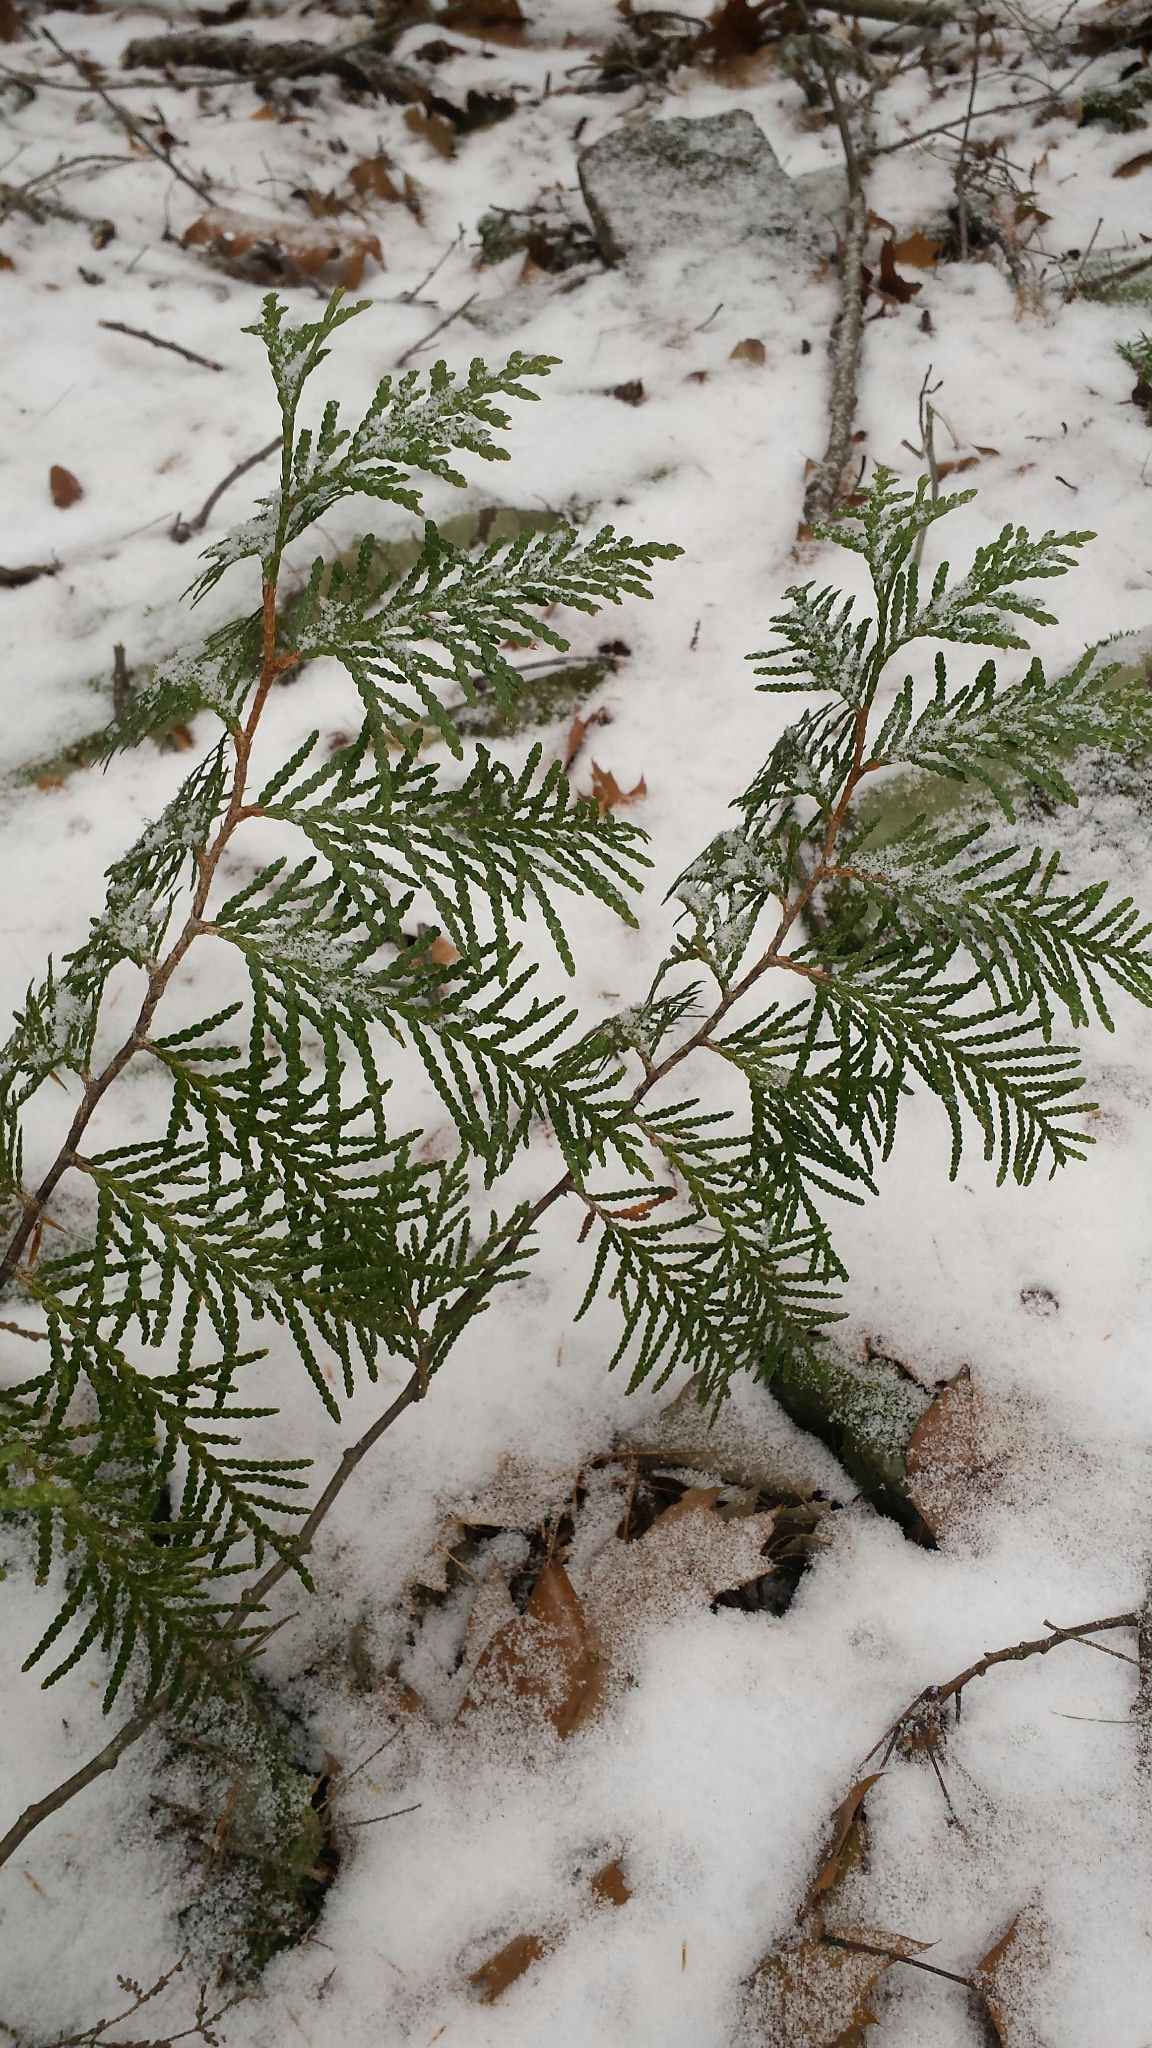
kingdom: Plantae
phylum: Tracheophyta
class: Pinopsida
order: Pinales
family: Cupressaceae
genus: Thuja
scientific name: Thuja occidentalis
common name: Northern white-cedar
